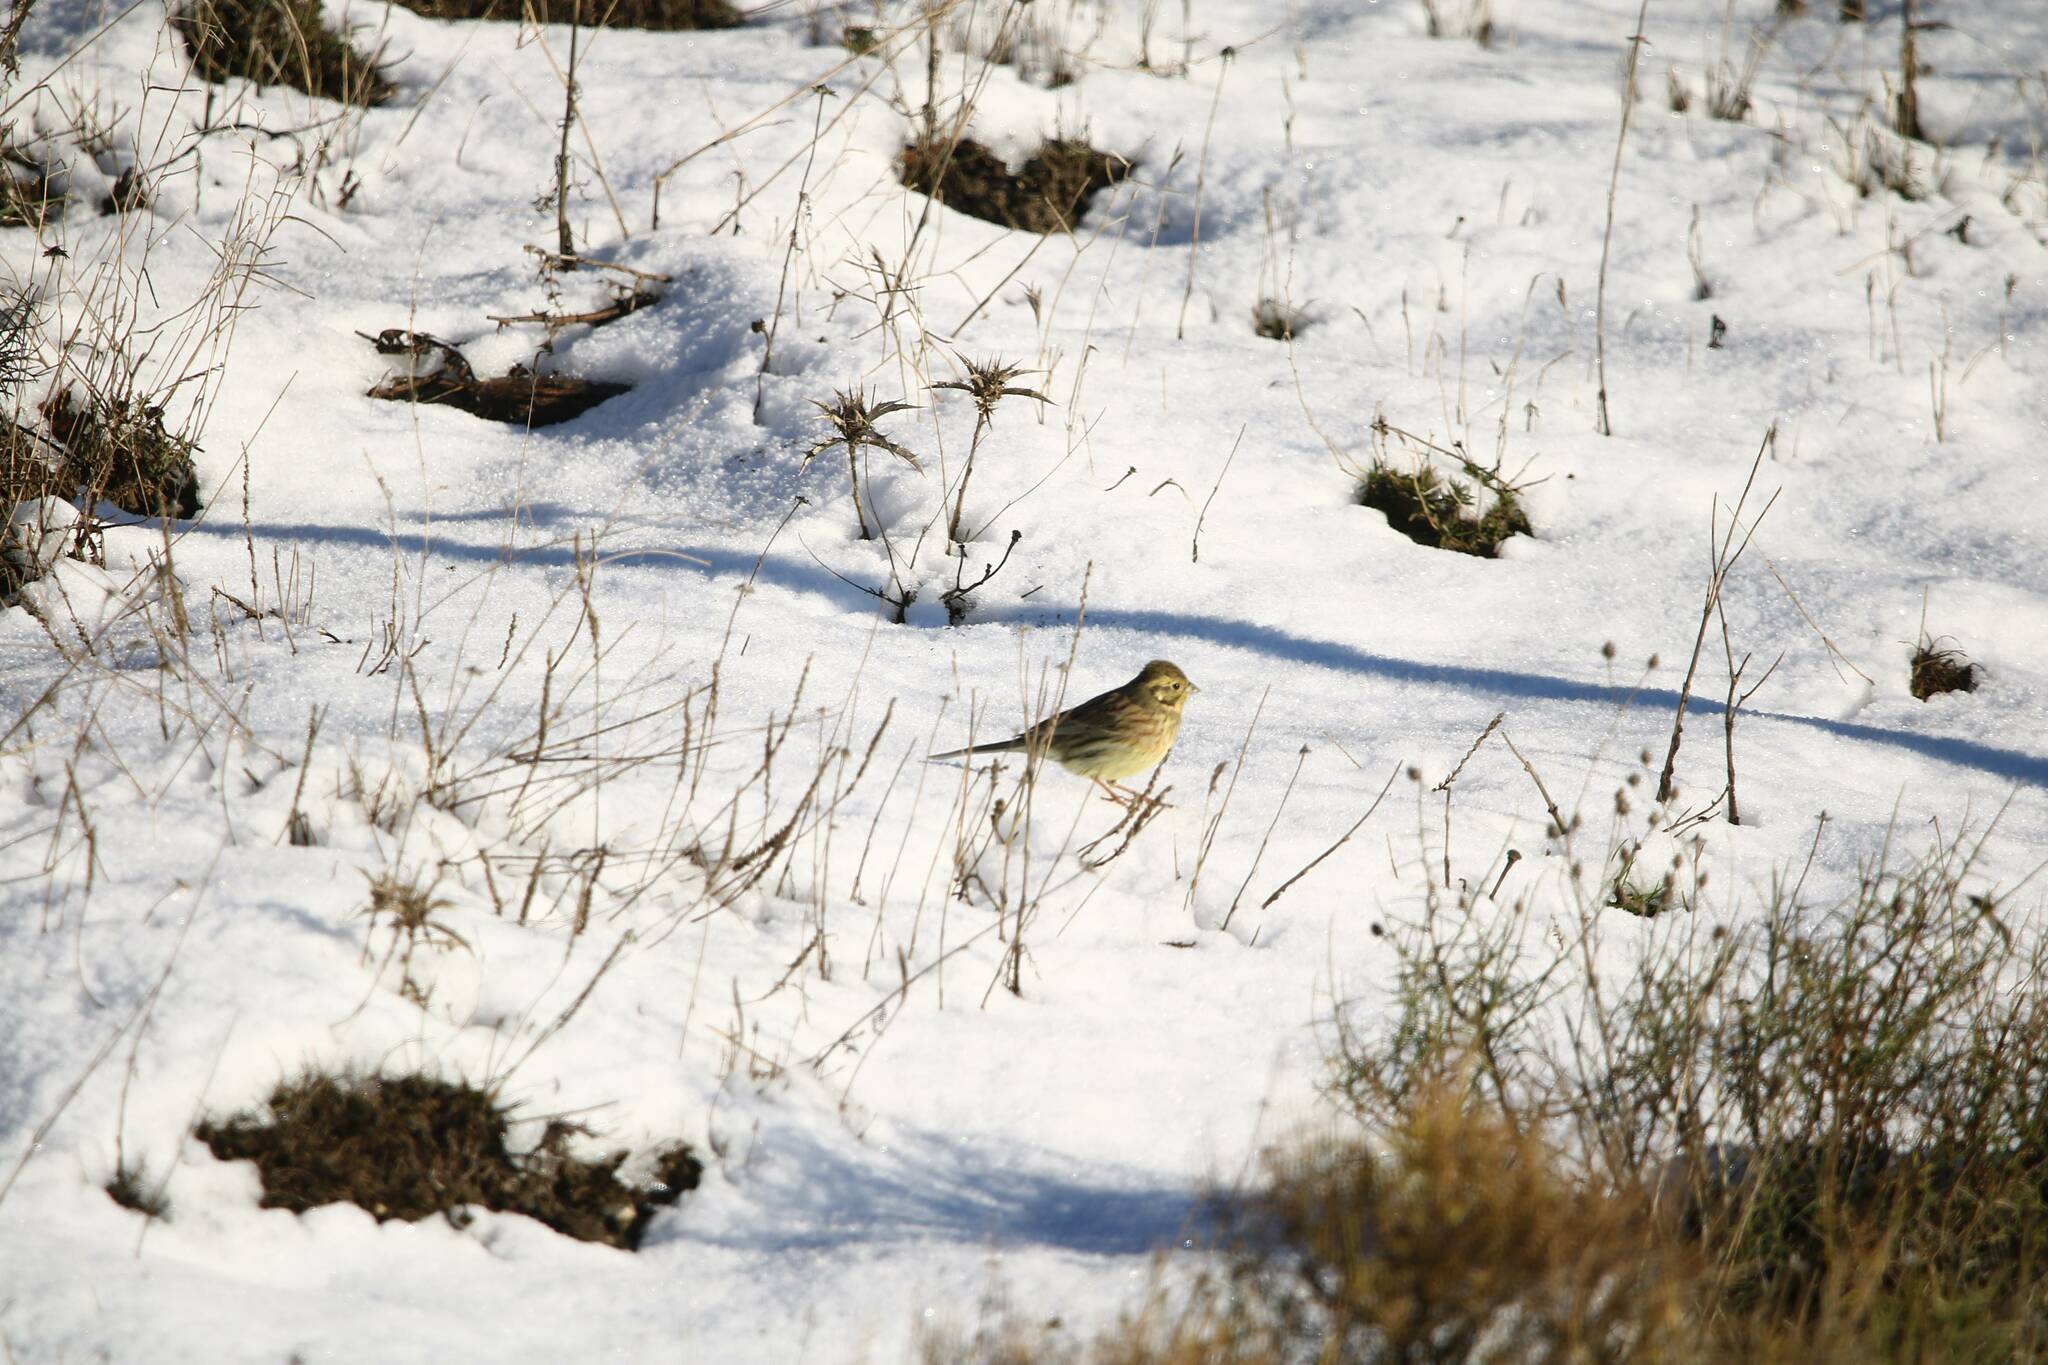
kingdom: Animalia
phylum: Chordata
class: Aves
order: Passeriformes
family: Emberizidae
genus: Emberiza
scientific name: Emberiza cirlus
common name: Cirl bunting
